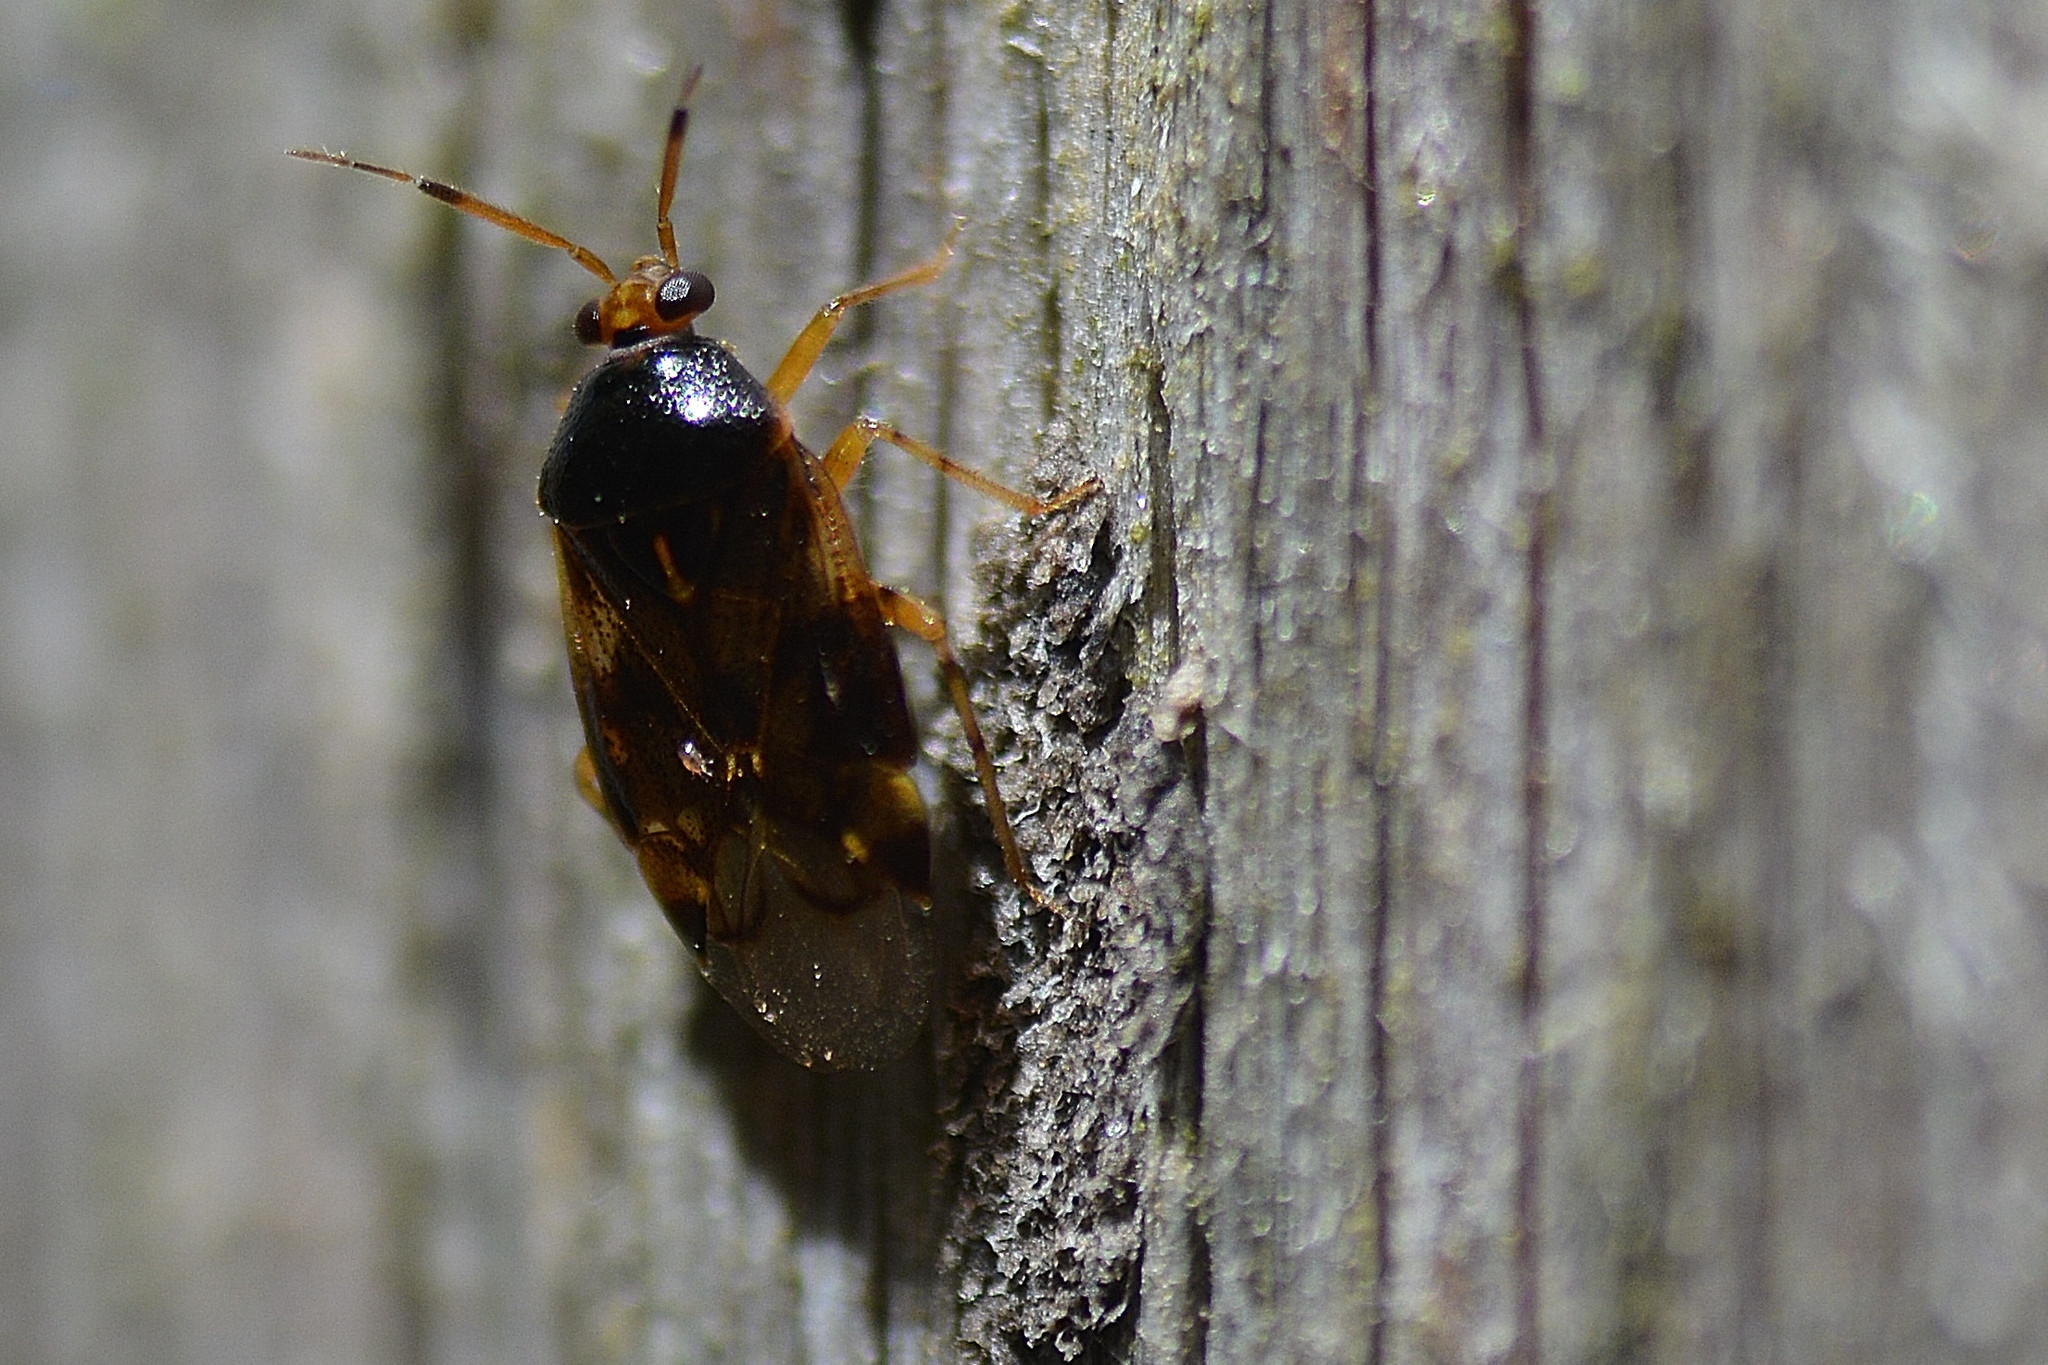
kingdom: Animalia
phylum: Arthropoda
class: Insecta
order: Hemiptera
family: Miridae
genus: Deraeocoris
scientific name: Deraeocoris lutescens
